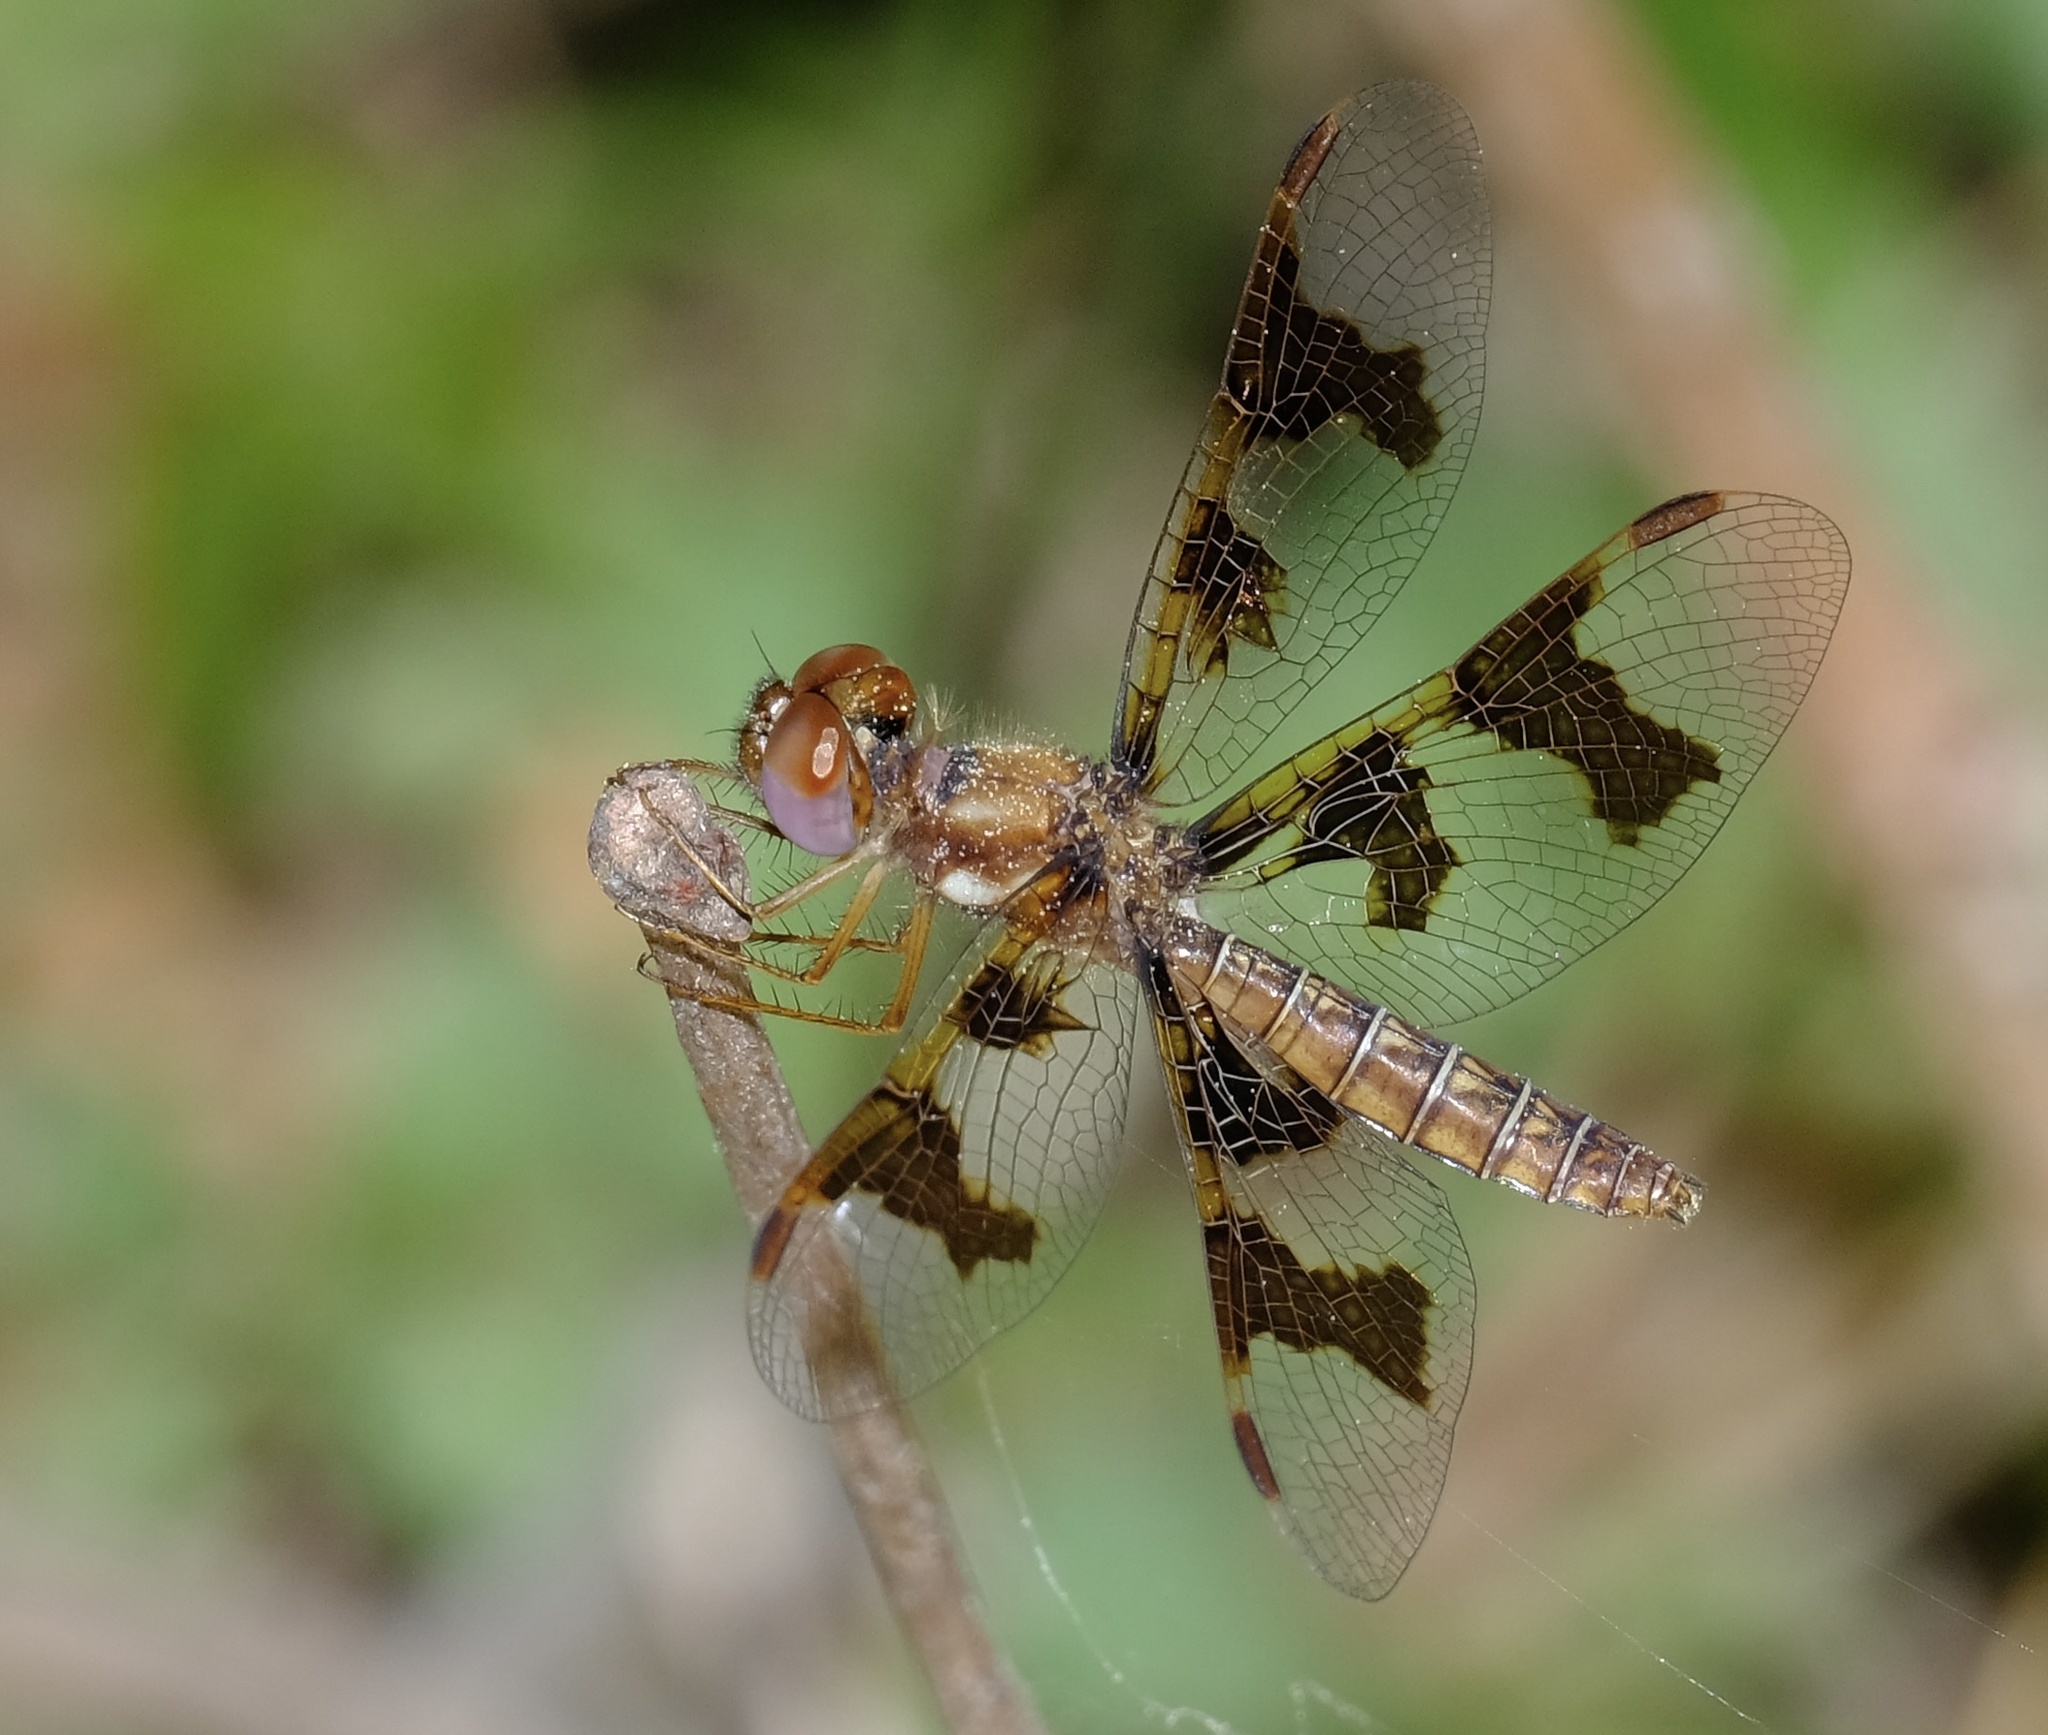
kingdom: Animalia
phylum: Arthropoda
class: Insecta
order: Odonata
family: Libellulidae
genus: Perithemis
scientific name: Perithemis tenera
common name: Eastern amberwing
